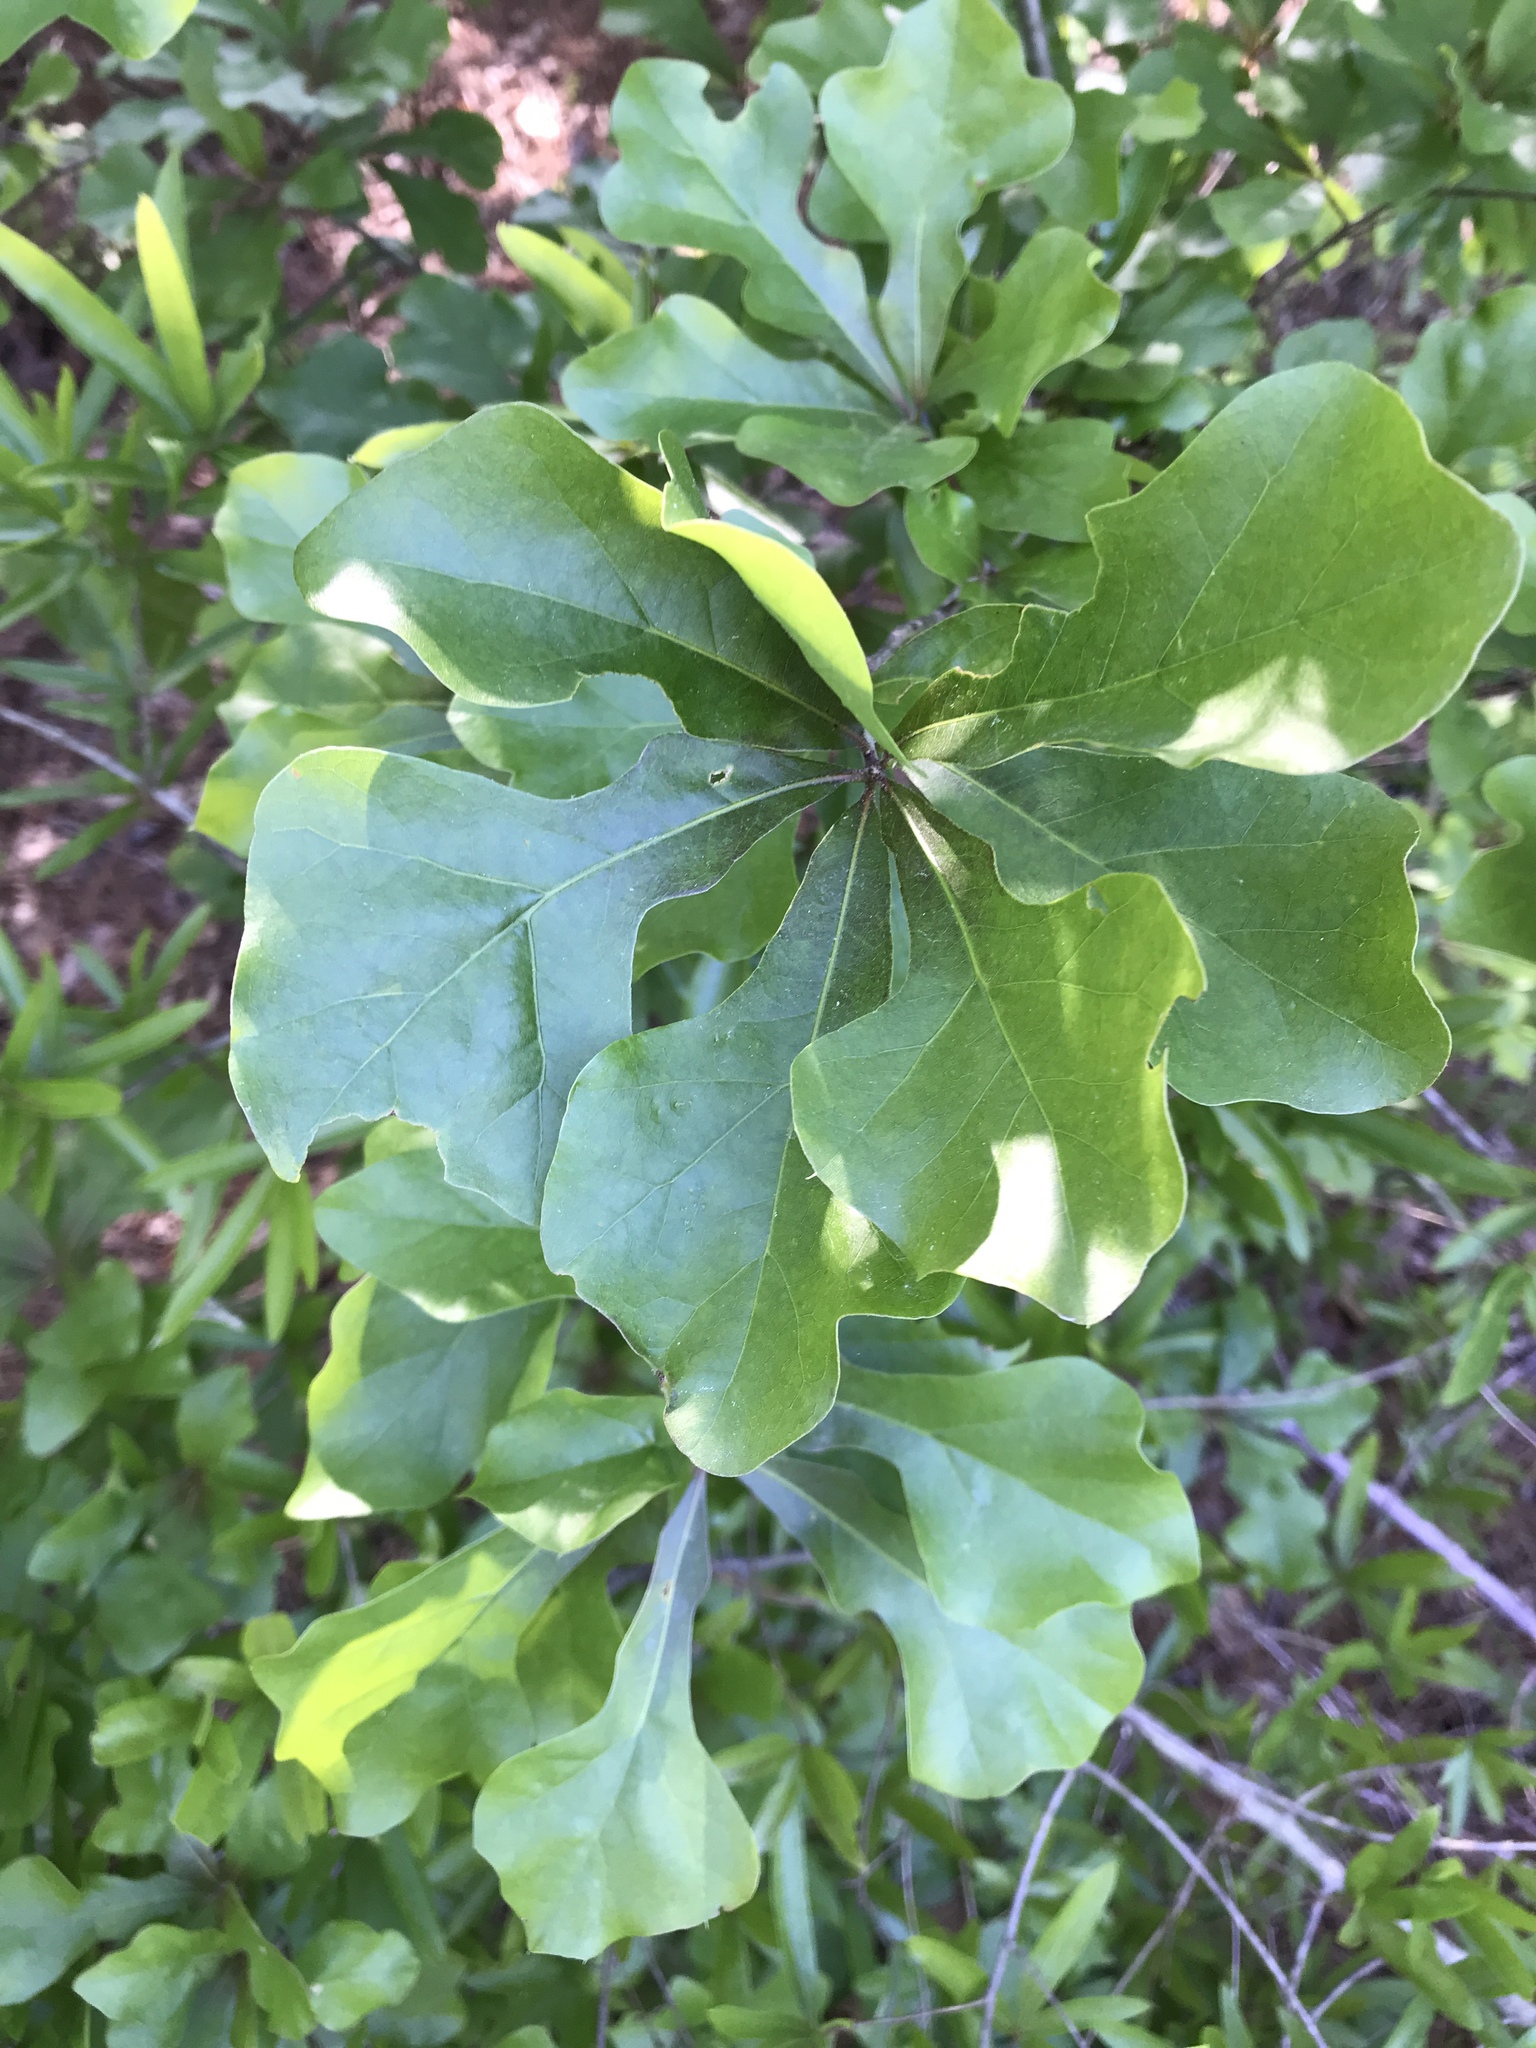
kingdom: Plantae
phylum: Tracheophyta
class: Magnoliopsida
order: Fagales
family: Fagaceae
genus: Quercus
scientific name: Quercus nigra
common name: Water oak
